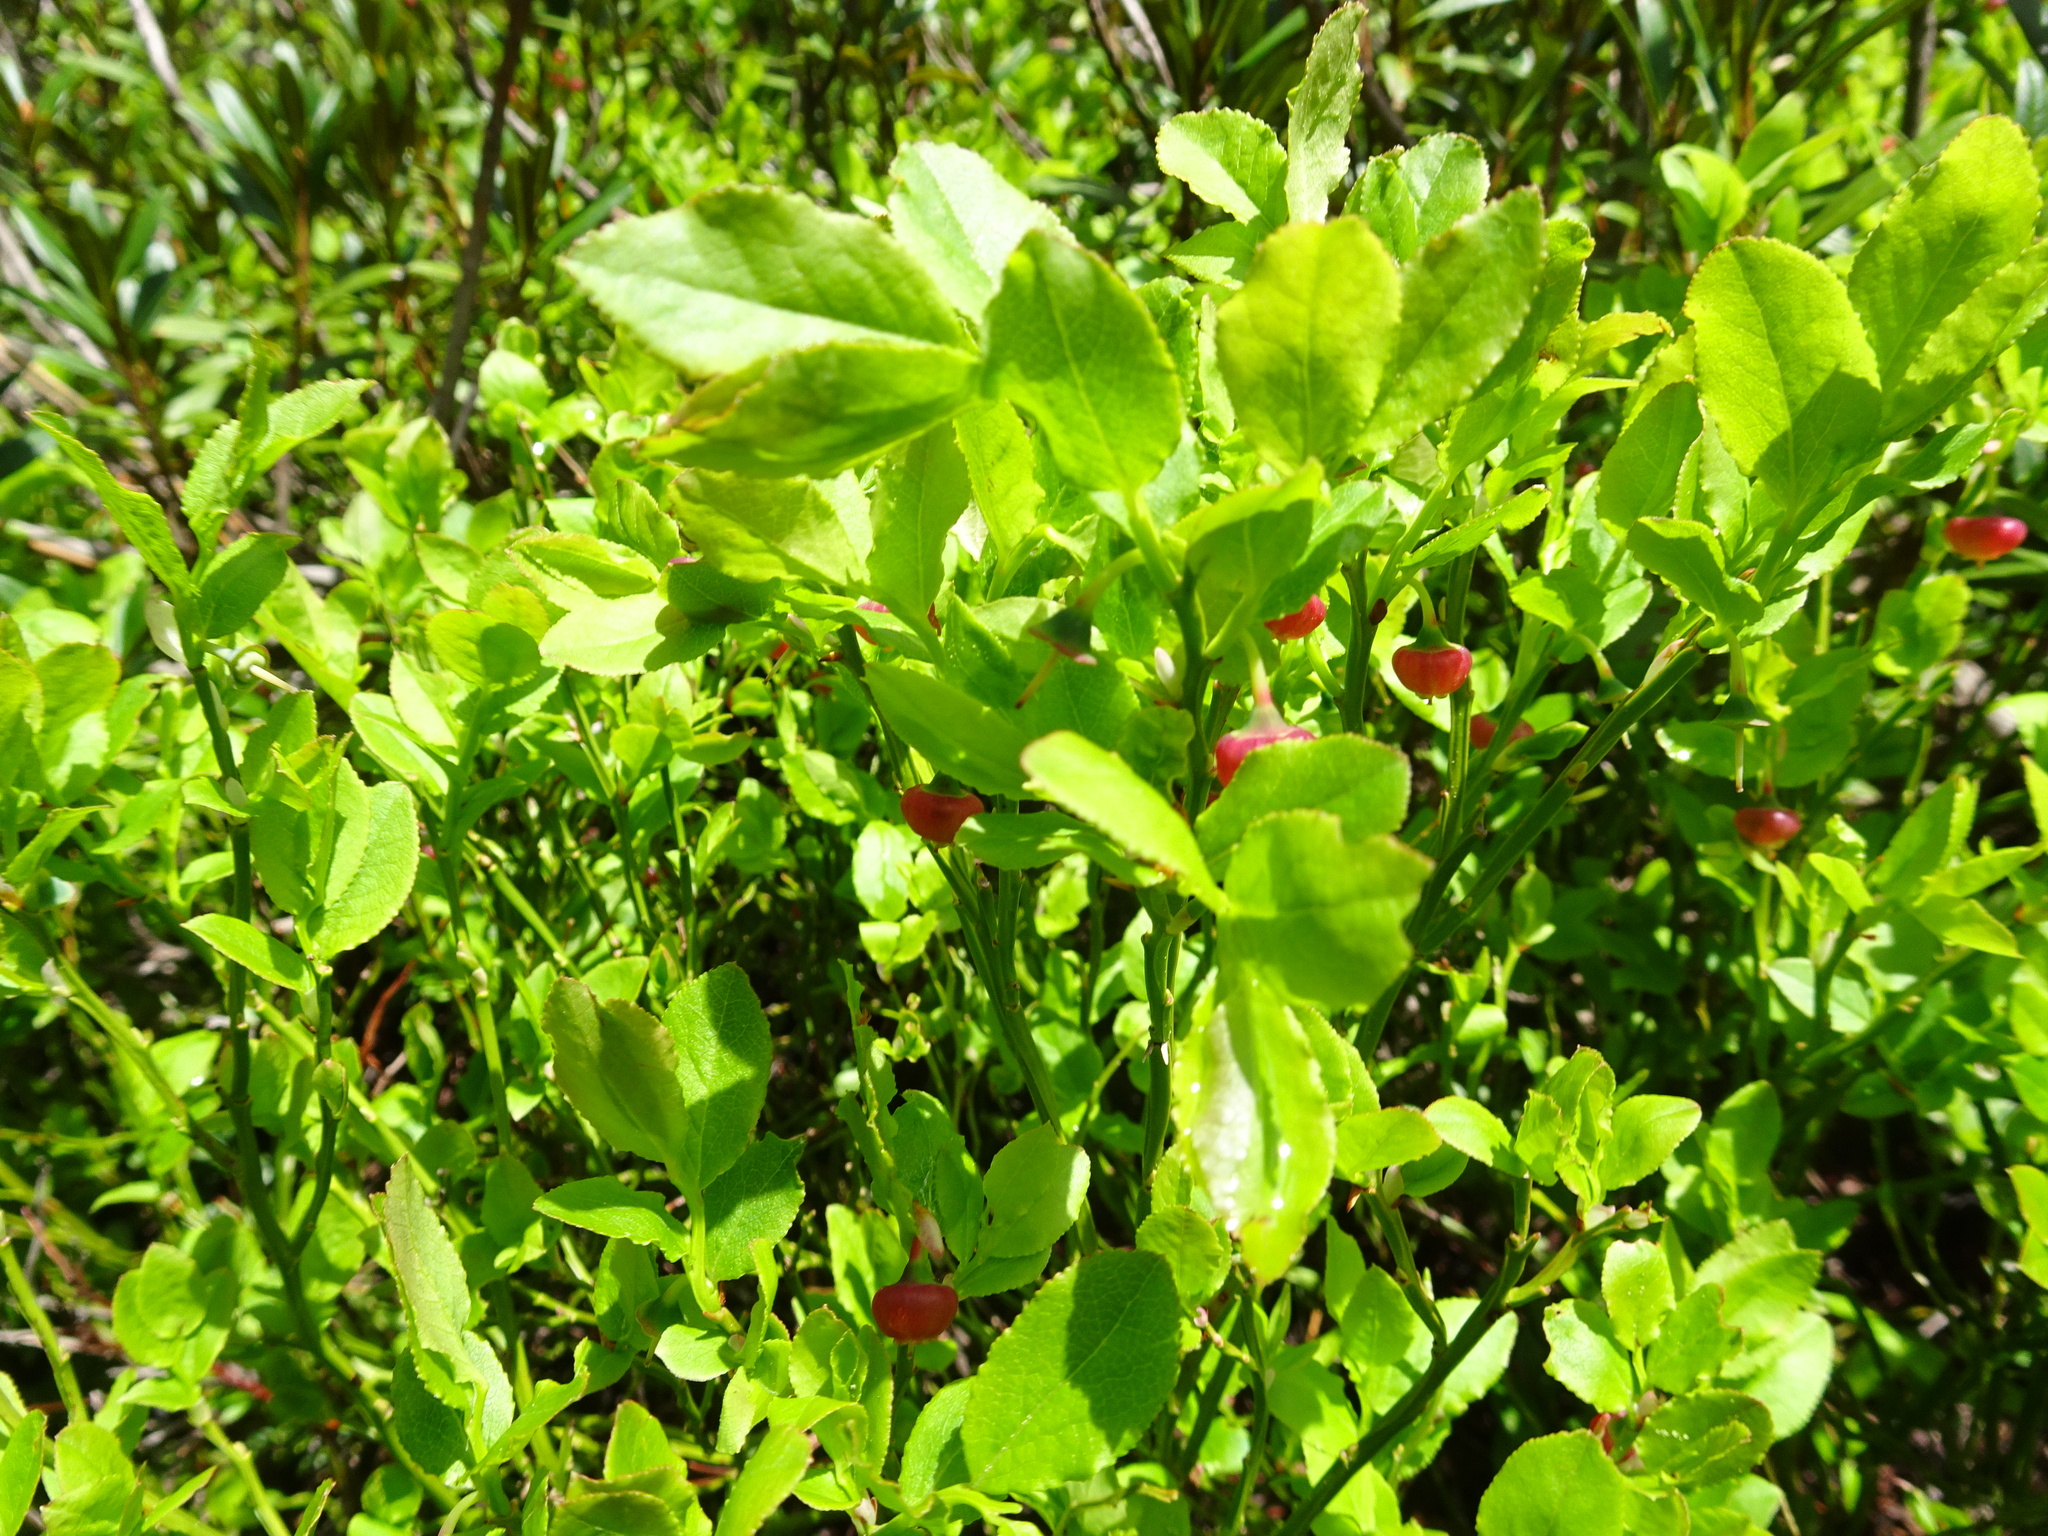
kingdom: Plantae
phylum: Tracheophyta
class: Magnoliopsida
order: Ericales
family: Ericaceae
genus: Vaccinium
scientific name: Vaccinium myrtillus
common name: Bilberry
